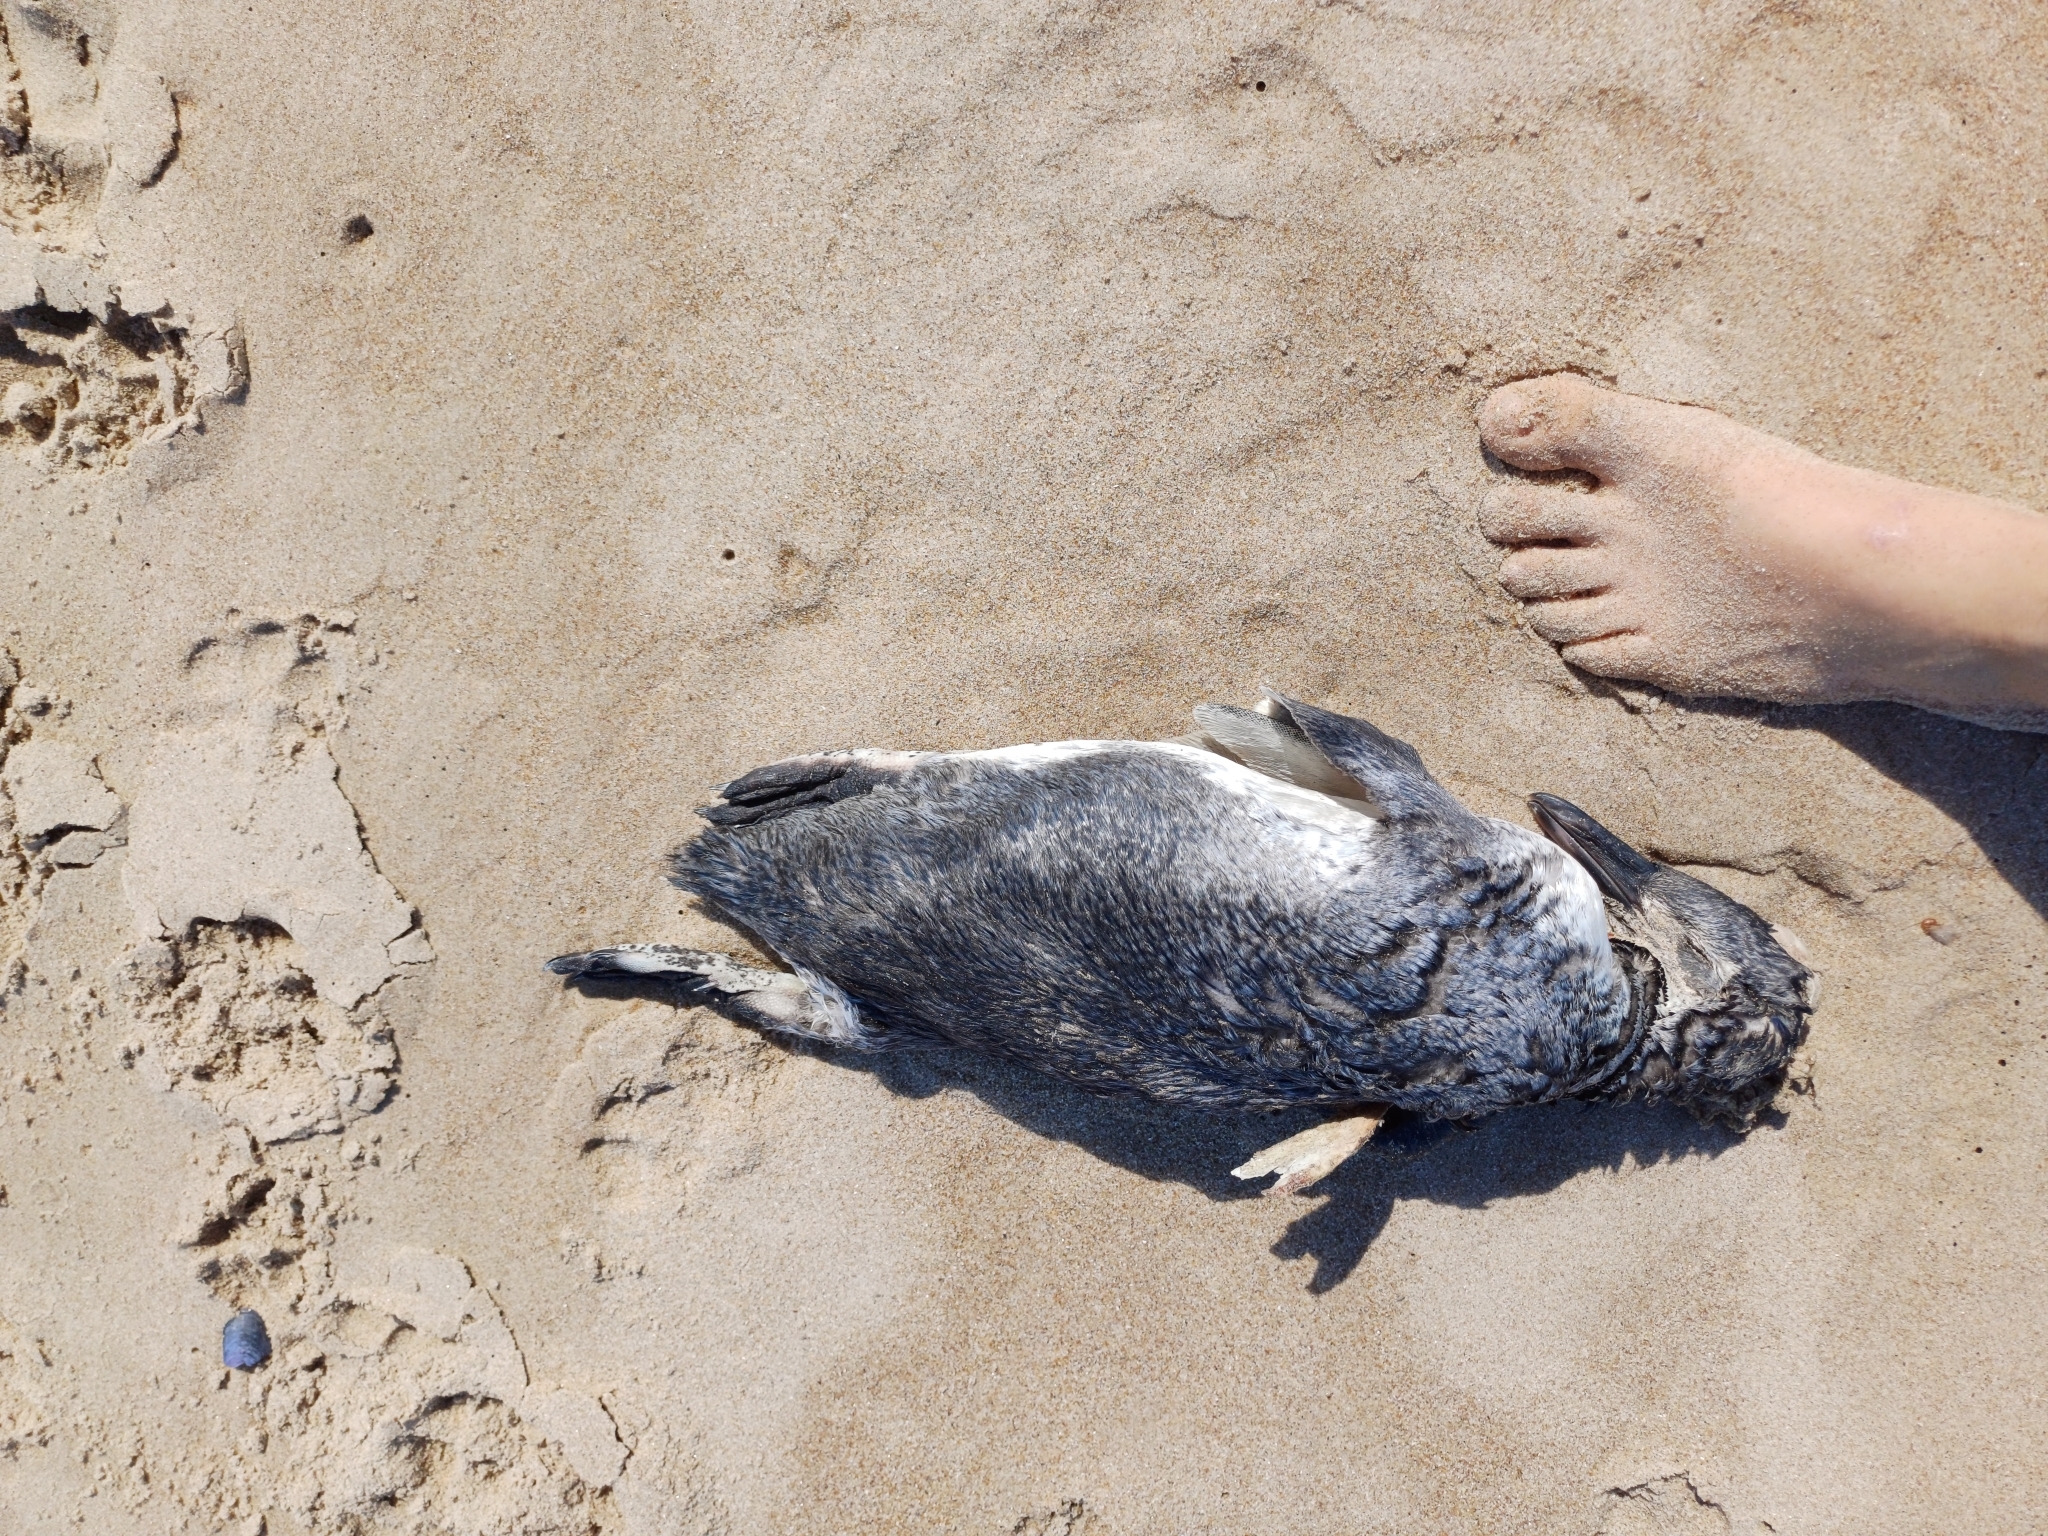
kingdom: Animalia
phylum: Chordata
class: Aves
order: Sphenisciformes
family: Spheniscidae
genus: Spheniscus
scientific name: Spheniscus magellanicus
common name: Magellanic penguin
